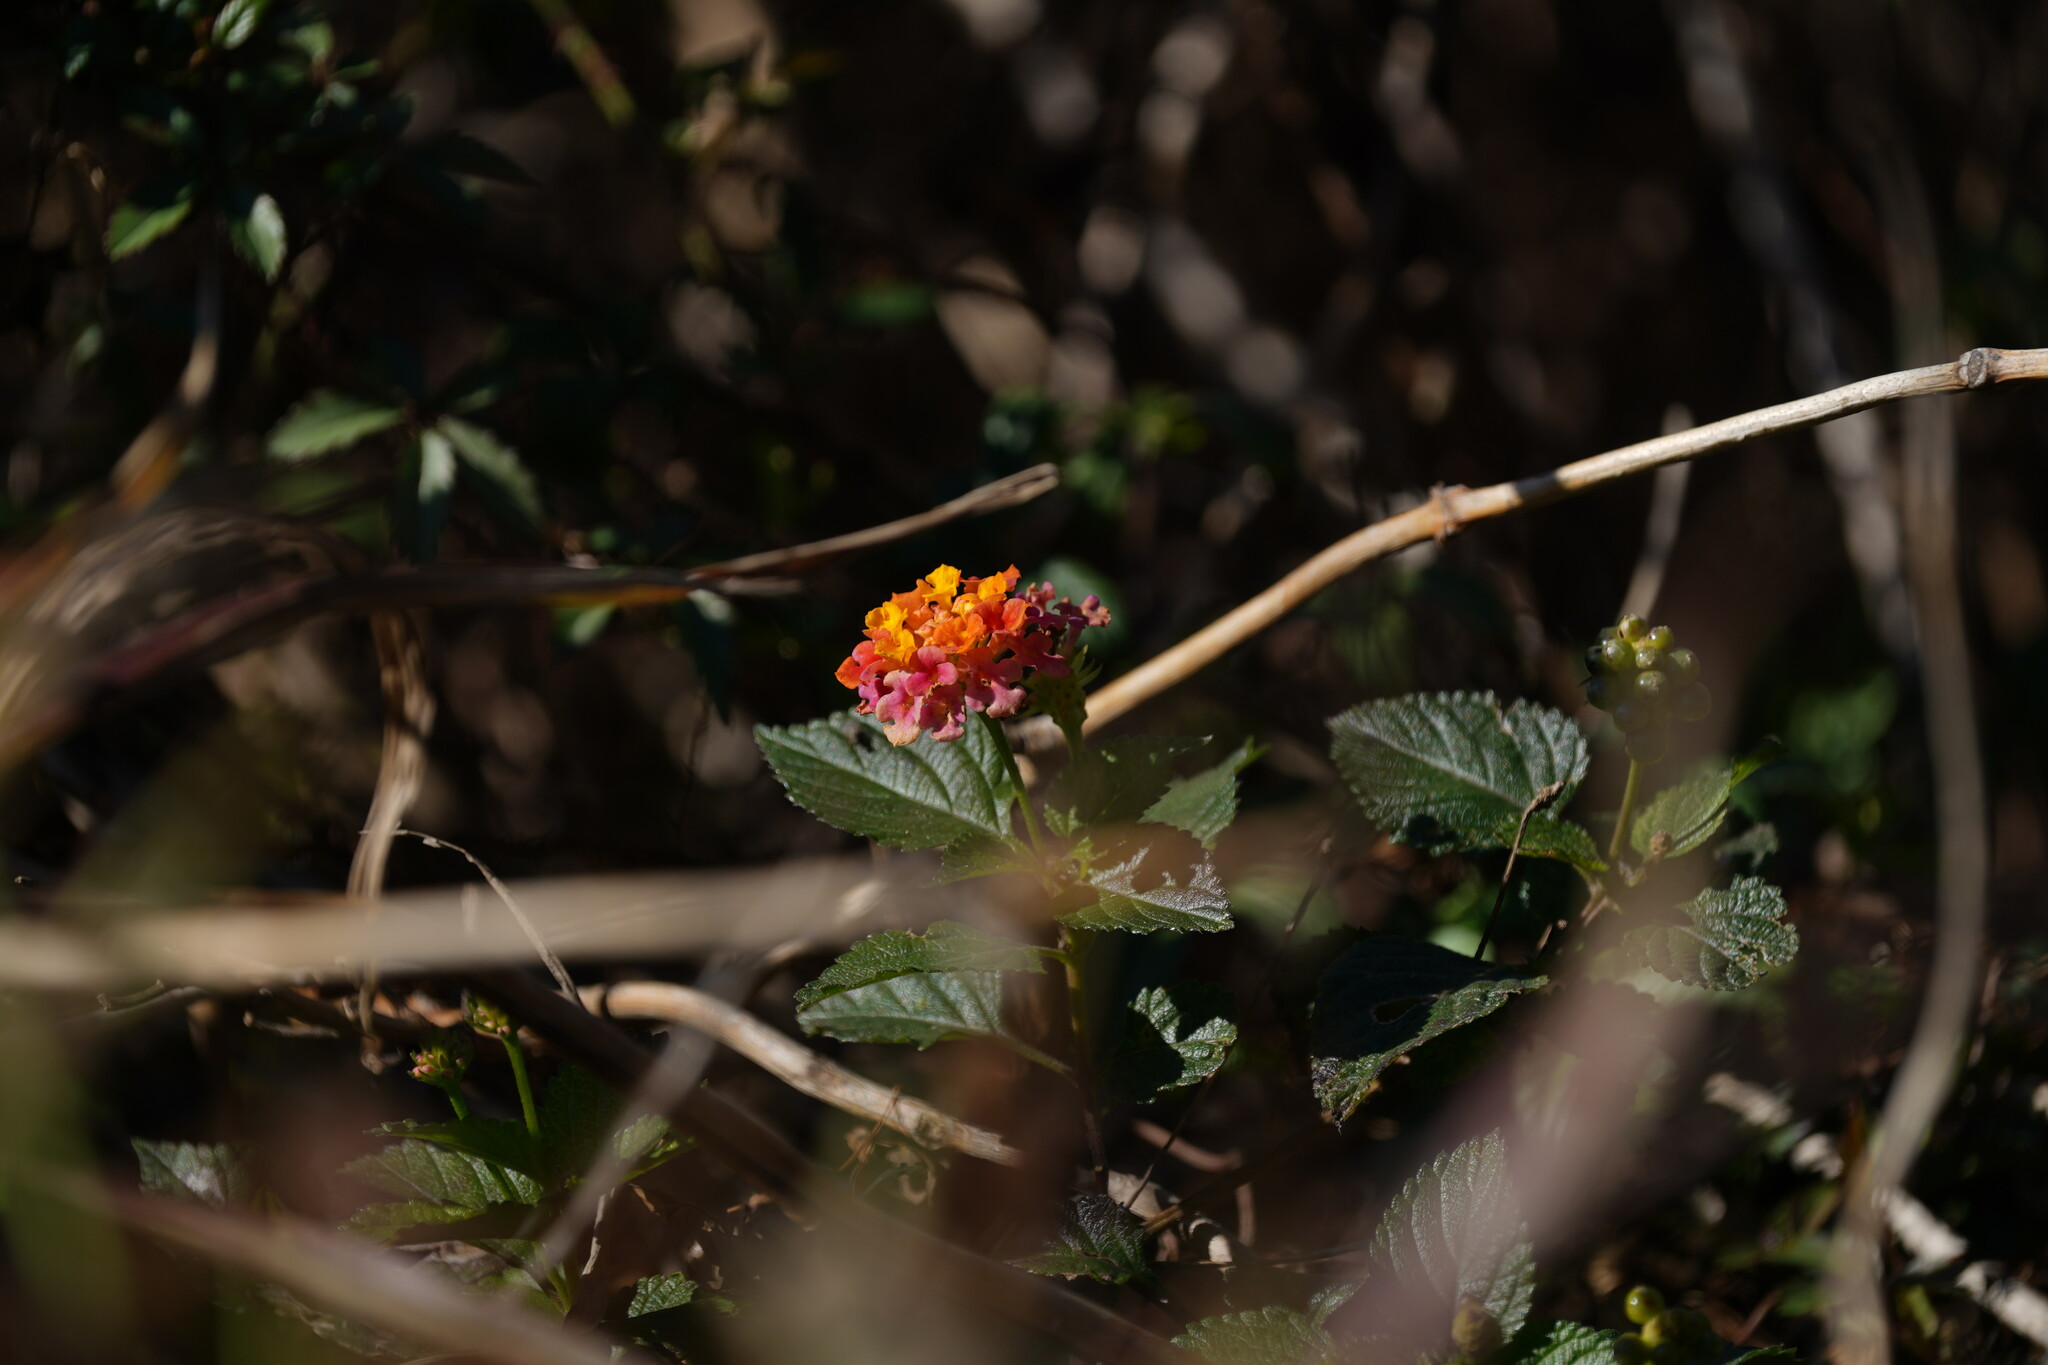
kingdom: Plantae
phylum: Tracheophyta
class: Magnoliopsida
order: Lamiales
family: Verbenaceae
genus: Lantana
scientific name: Lantana camara
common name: Lantana
